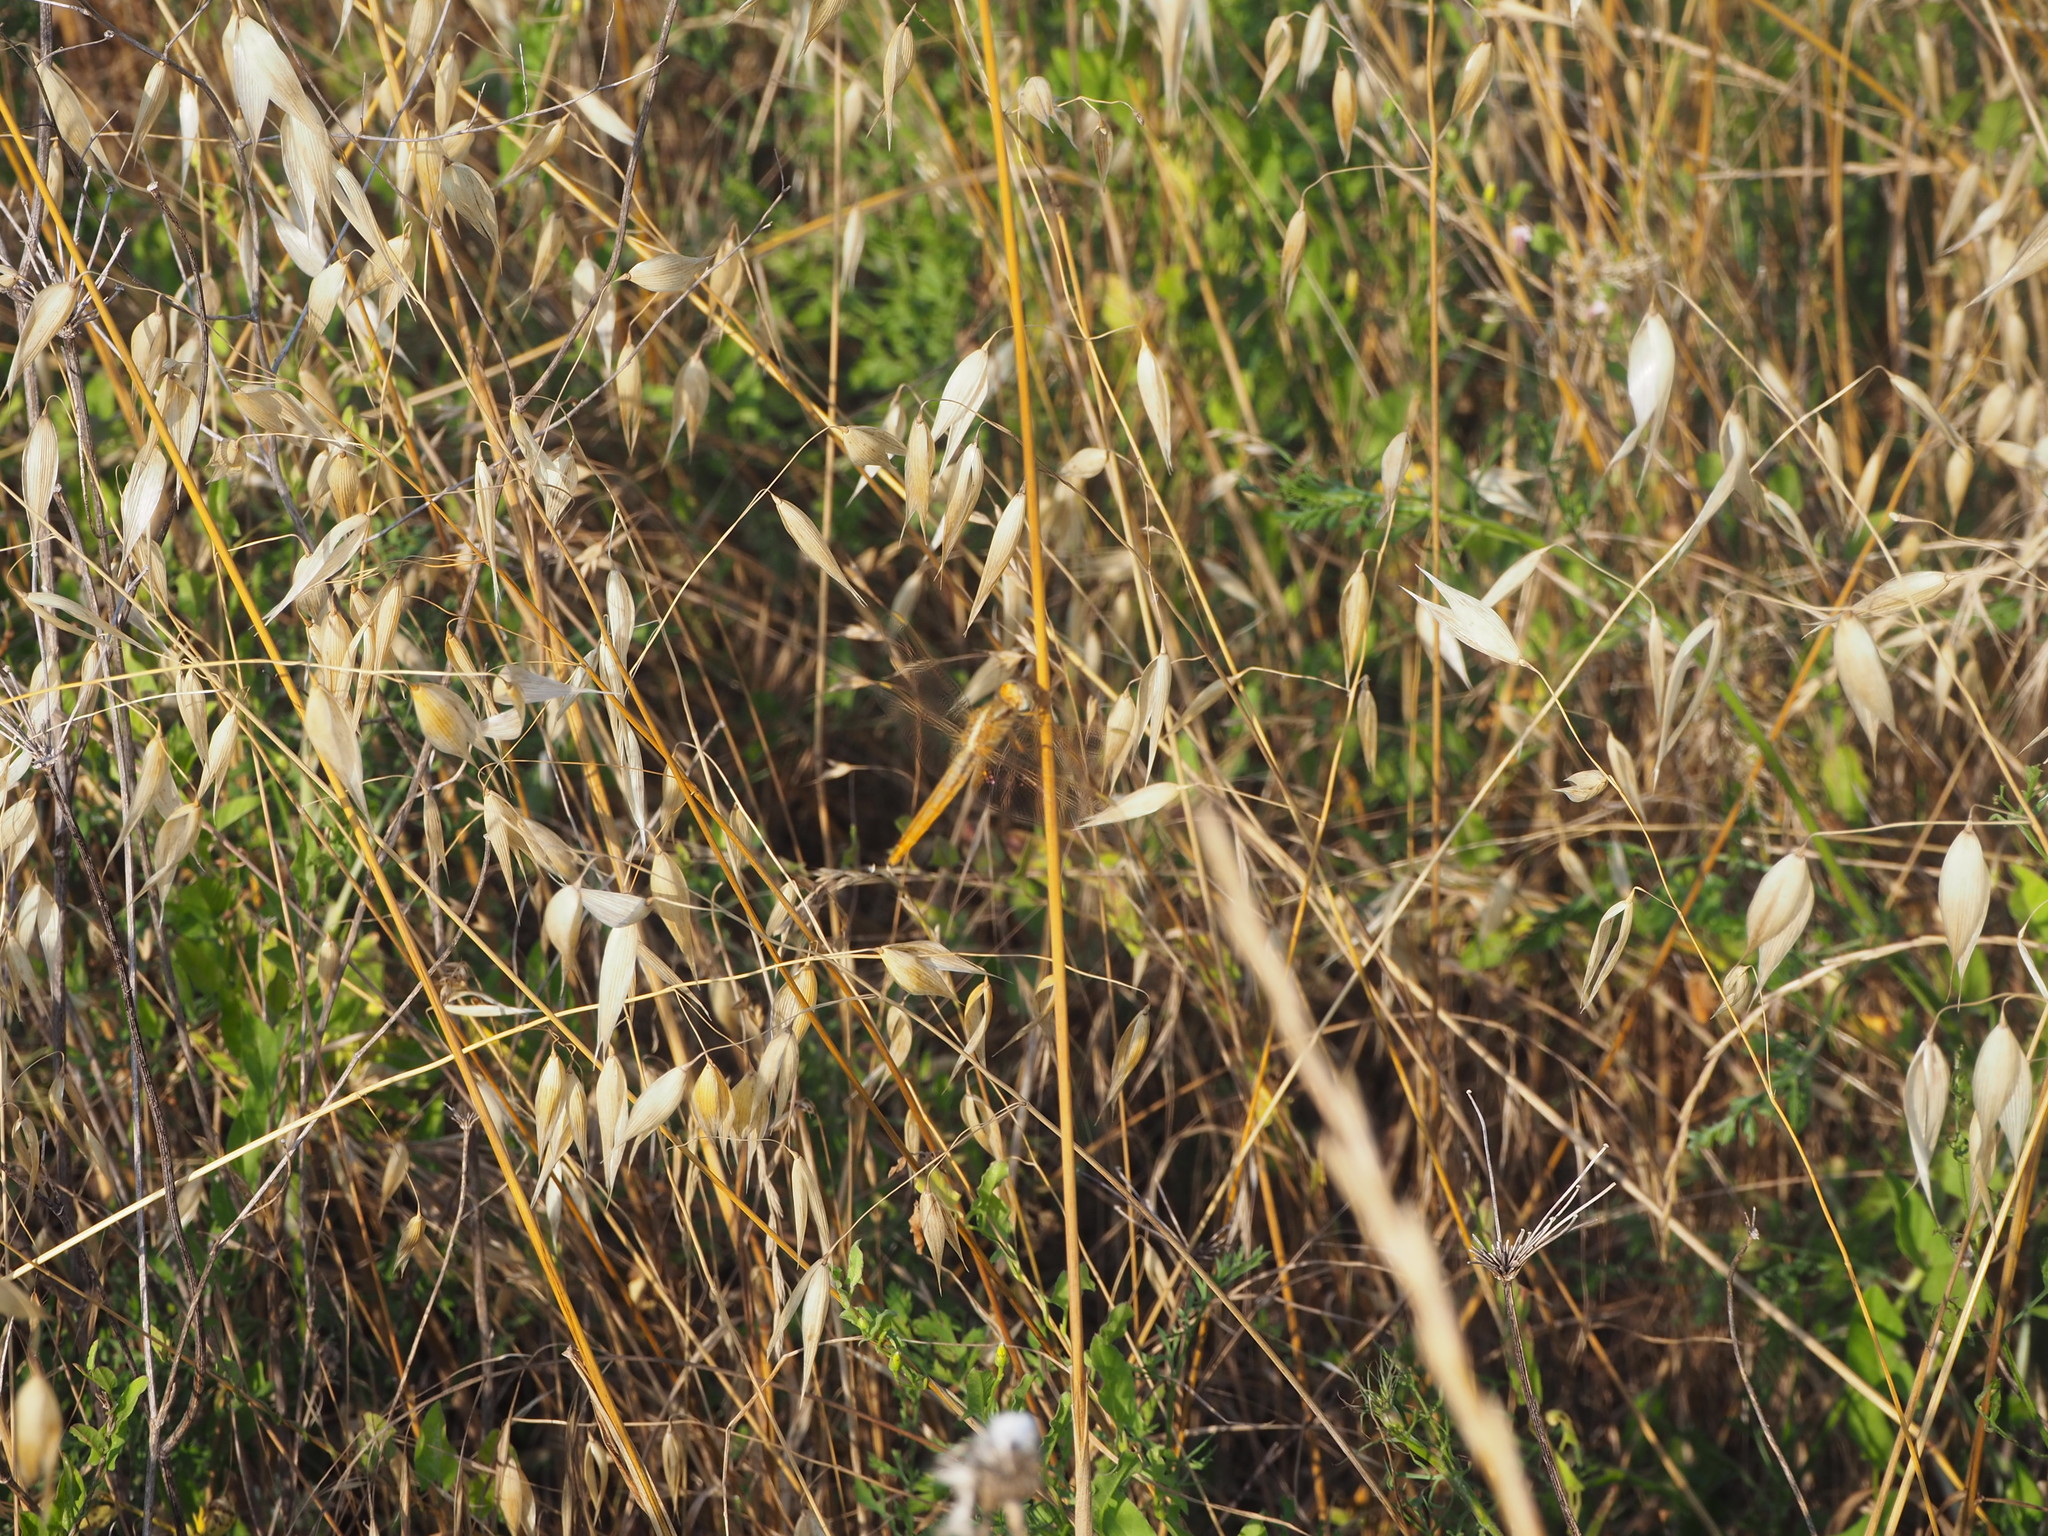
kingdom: Animalia
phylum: Arthropoda
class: Insecta
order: Odonata
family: Libellulidae
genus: Crocothemis
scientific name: Crocothemis erythraea
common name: Scarlet dragonfly
